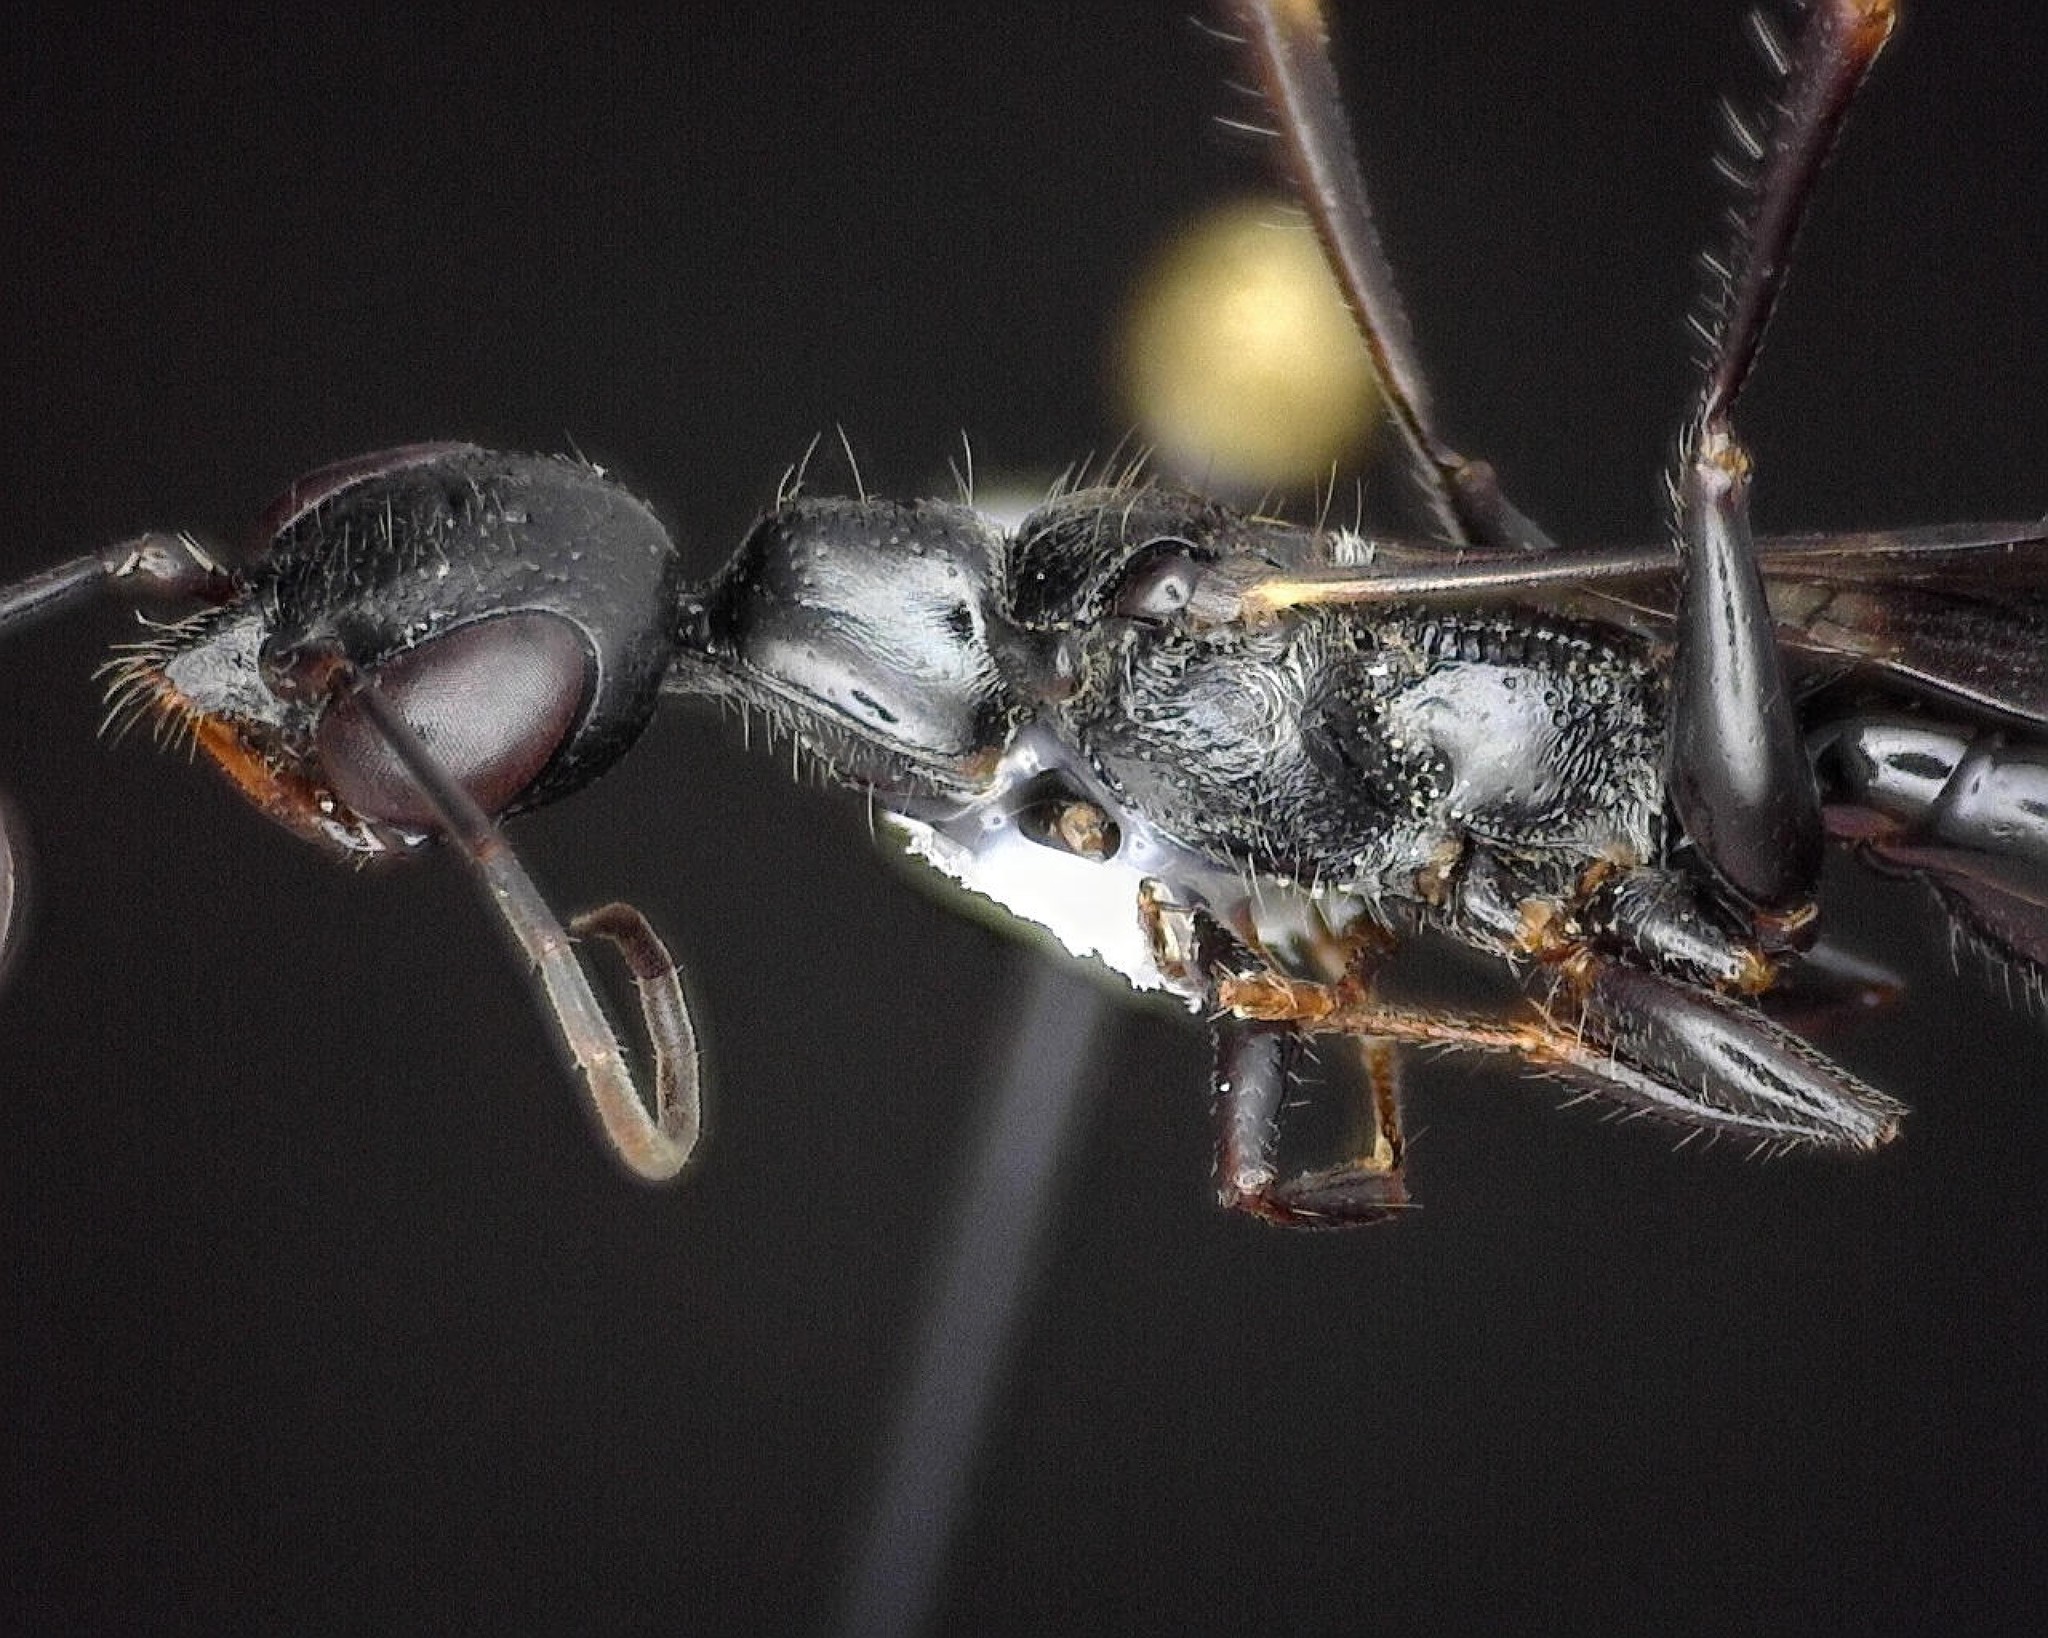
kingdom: Animalia
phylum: Arthropoda
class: Insecta
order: Hymenoptera
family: Ampulicidae
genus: Ampulex
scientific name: Ampulex canaliculata
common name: Cockroach wasp
